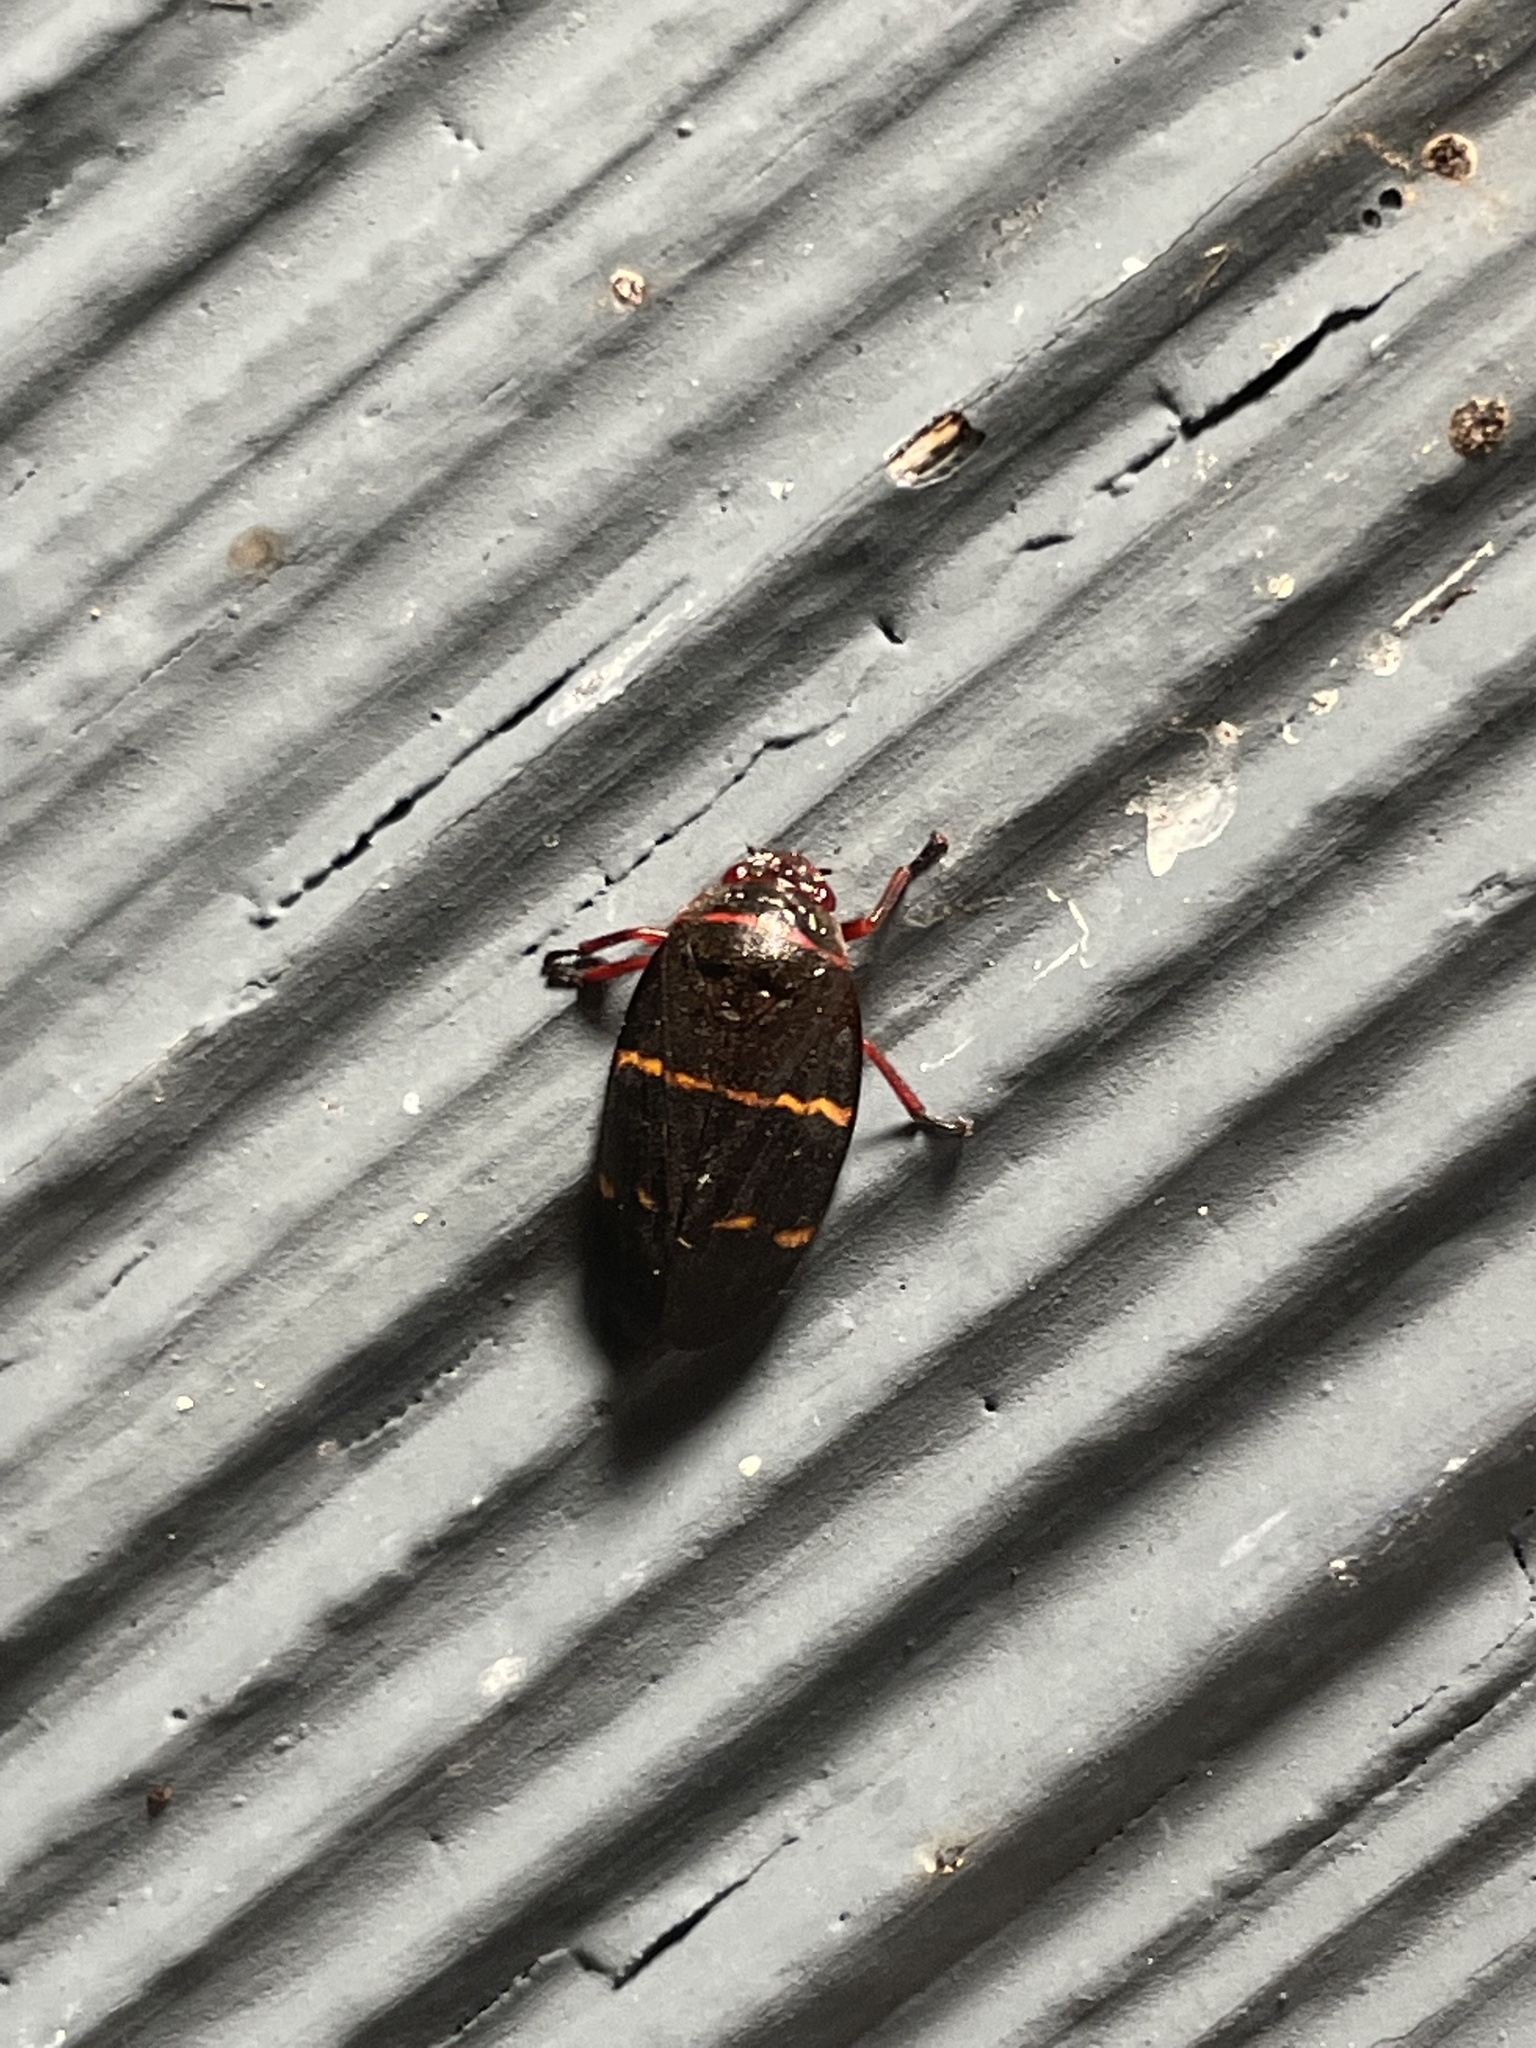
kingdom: Animalia
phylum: Arthropoda
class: Insecta
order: Hemiptera
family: Cercopidae
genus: Prosapia
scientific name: Prosapia bicincta
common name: Twolined spittlebug
